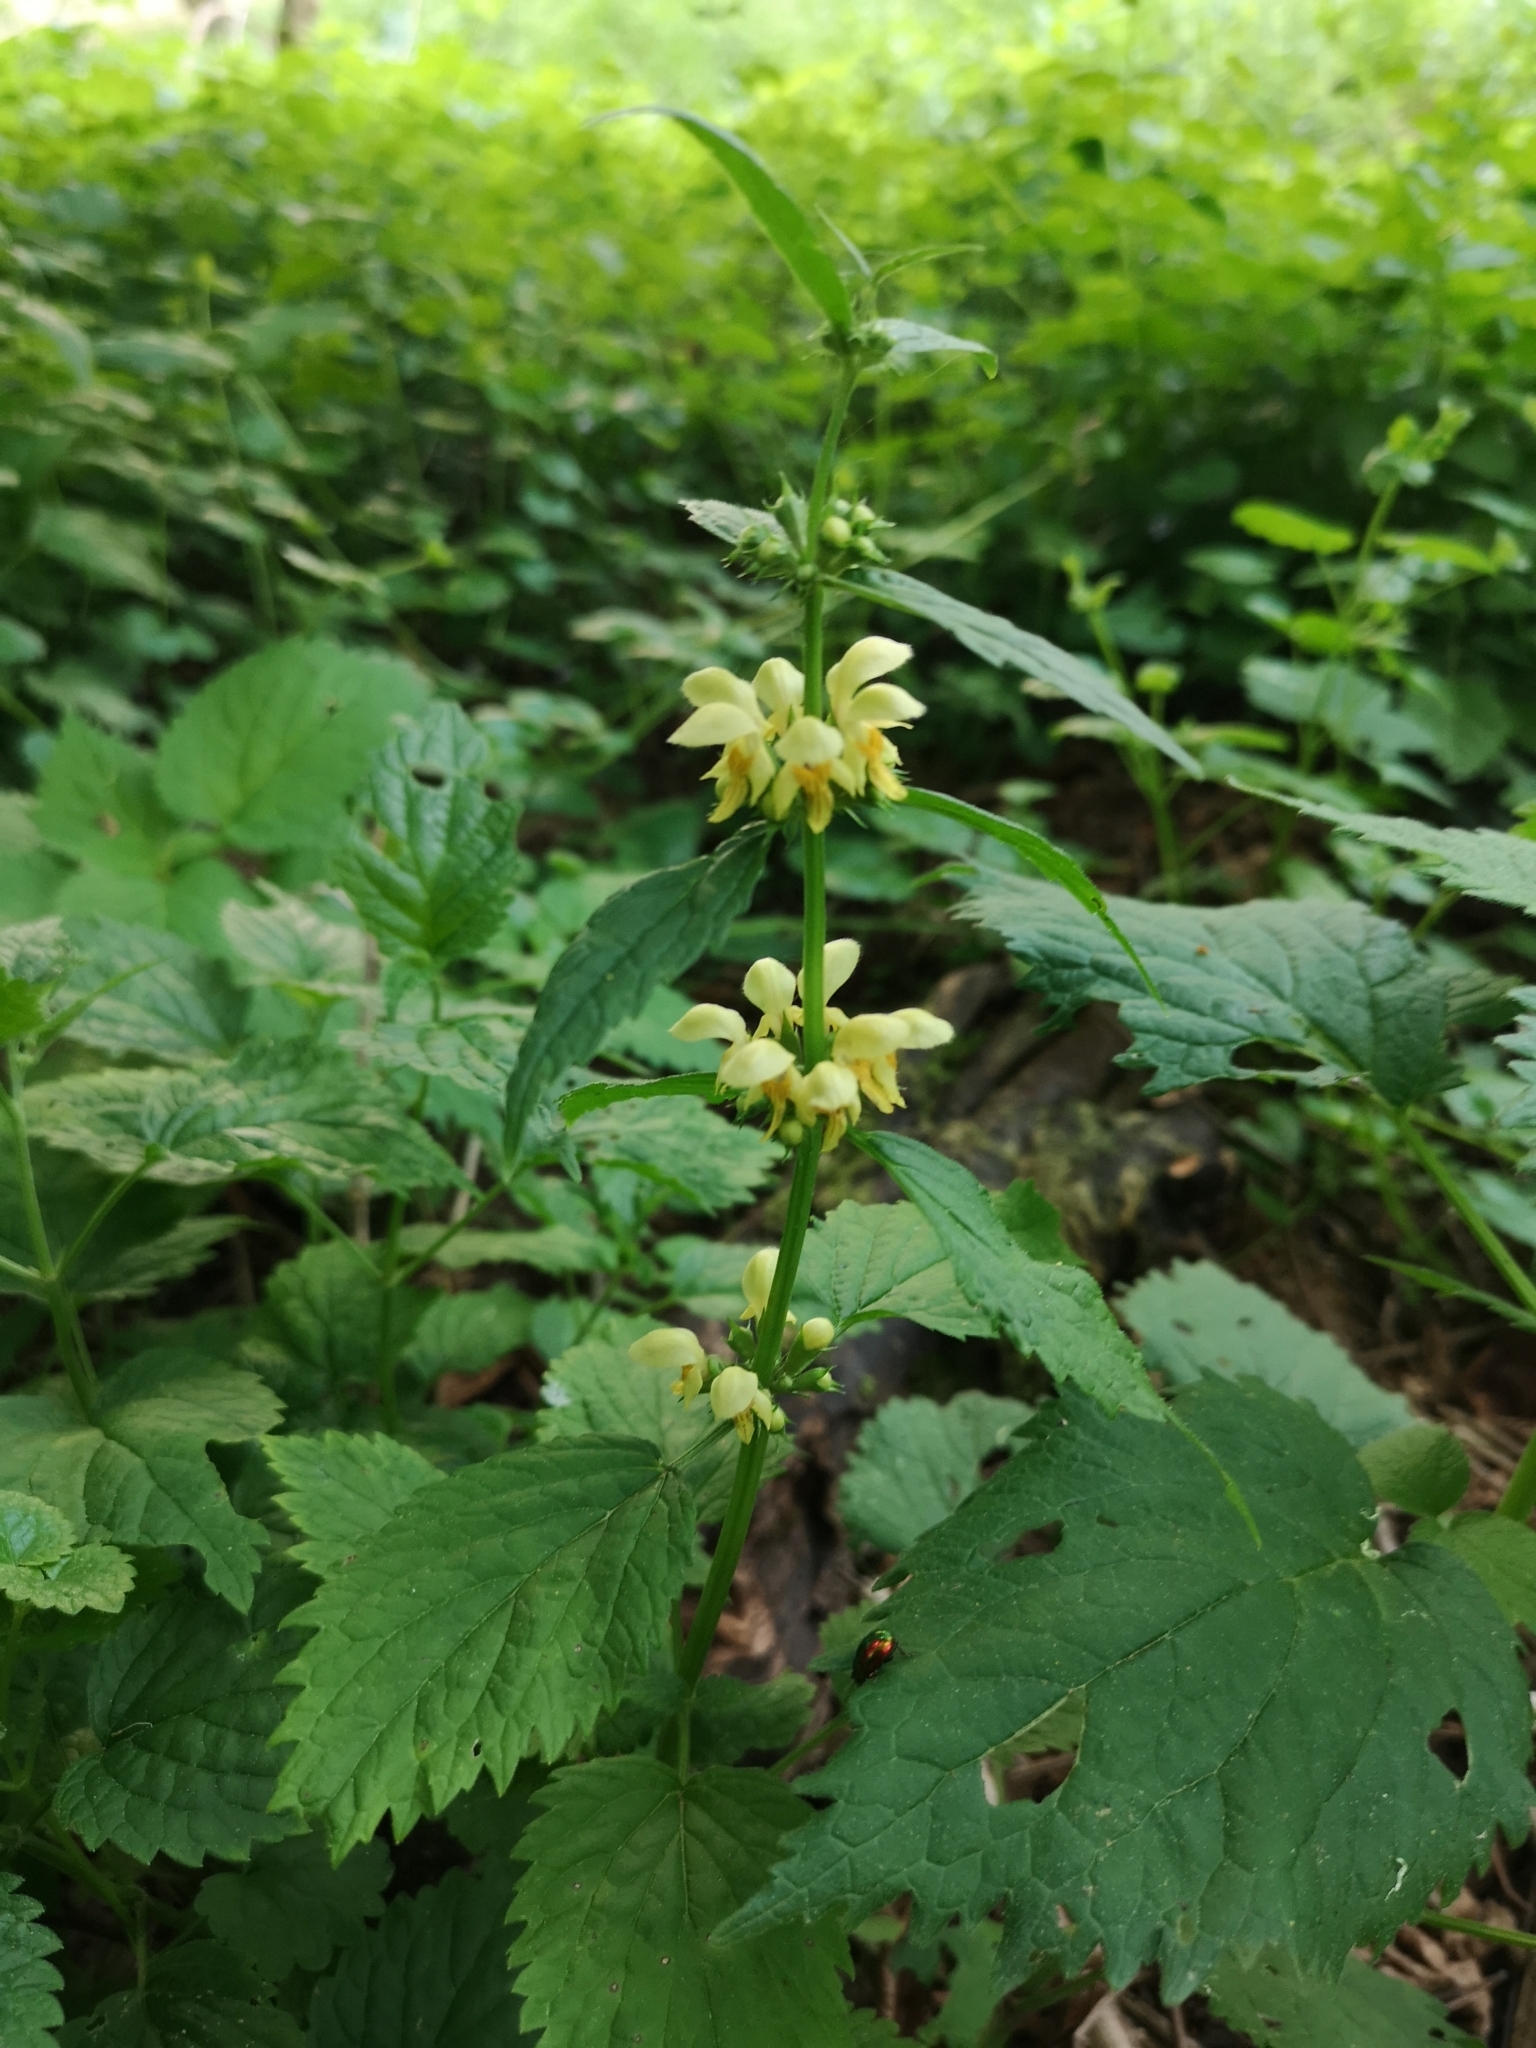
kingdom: Plantae
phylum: Tracheophyta
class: Magnoliopsida
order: Lamiales
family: Lamiaceae
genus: Lamium
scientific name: Lamium galeobdolon
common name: Yellow archangel
